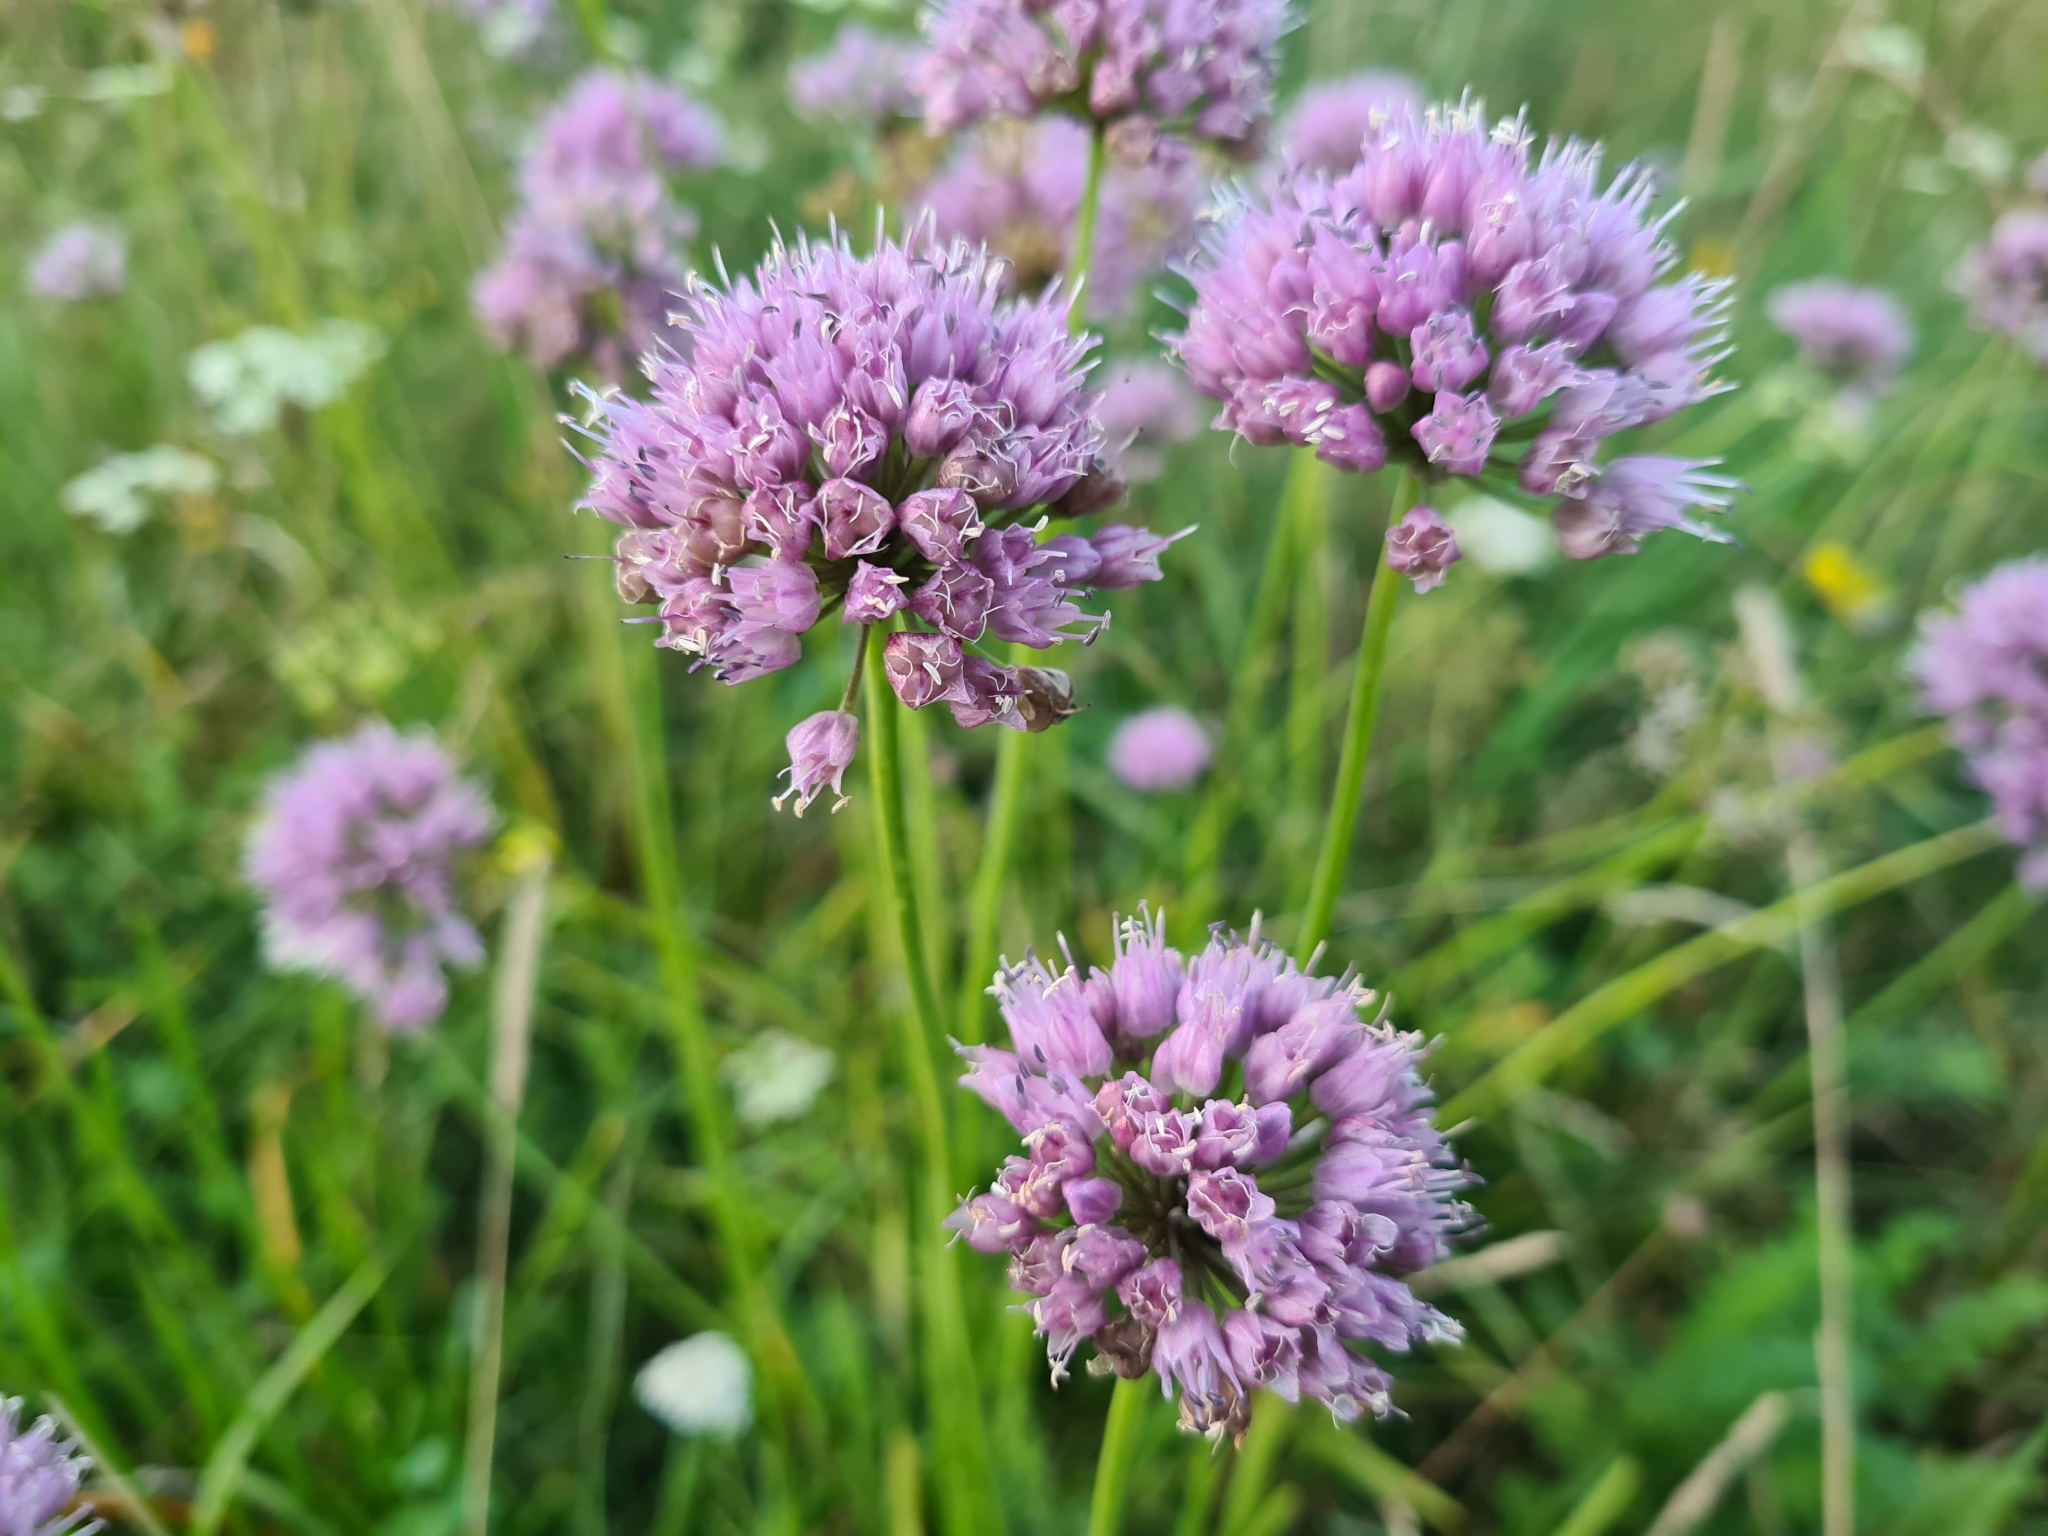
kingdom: Plantae
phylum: Tracheophyta
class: Liliopsida
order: Asparagales
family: Amaryllidaceae
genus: Allium
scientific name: Allium lusitanicum
